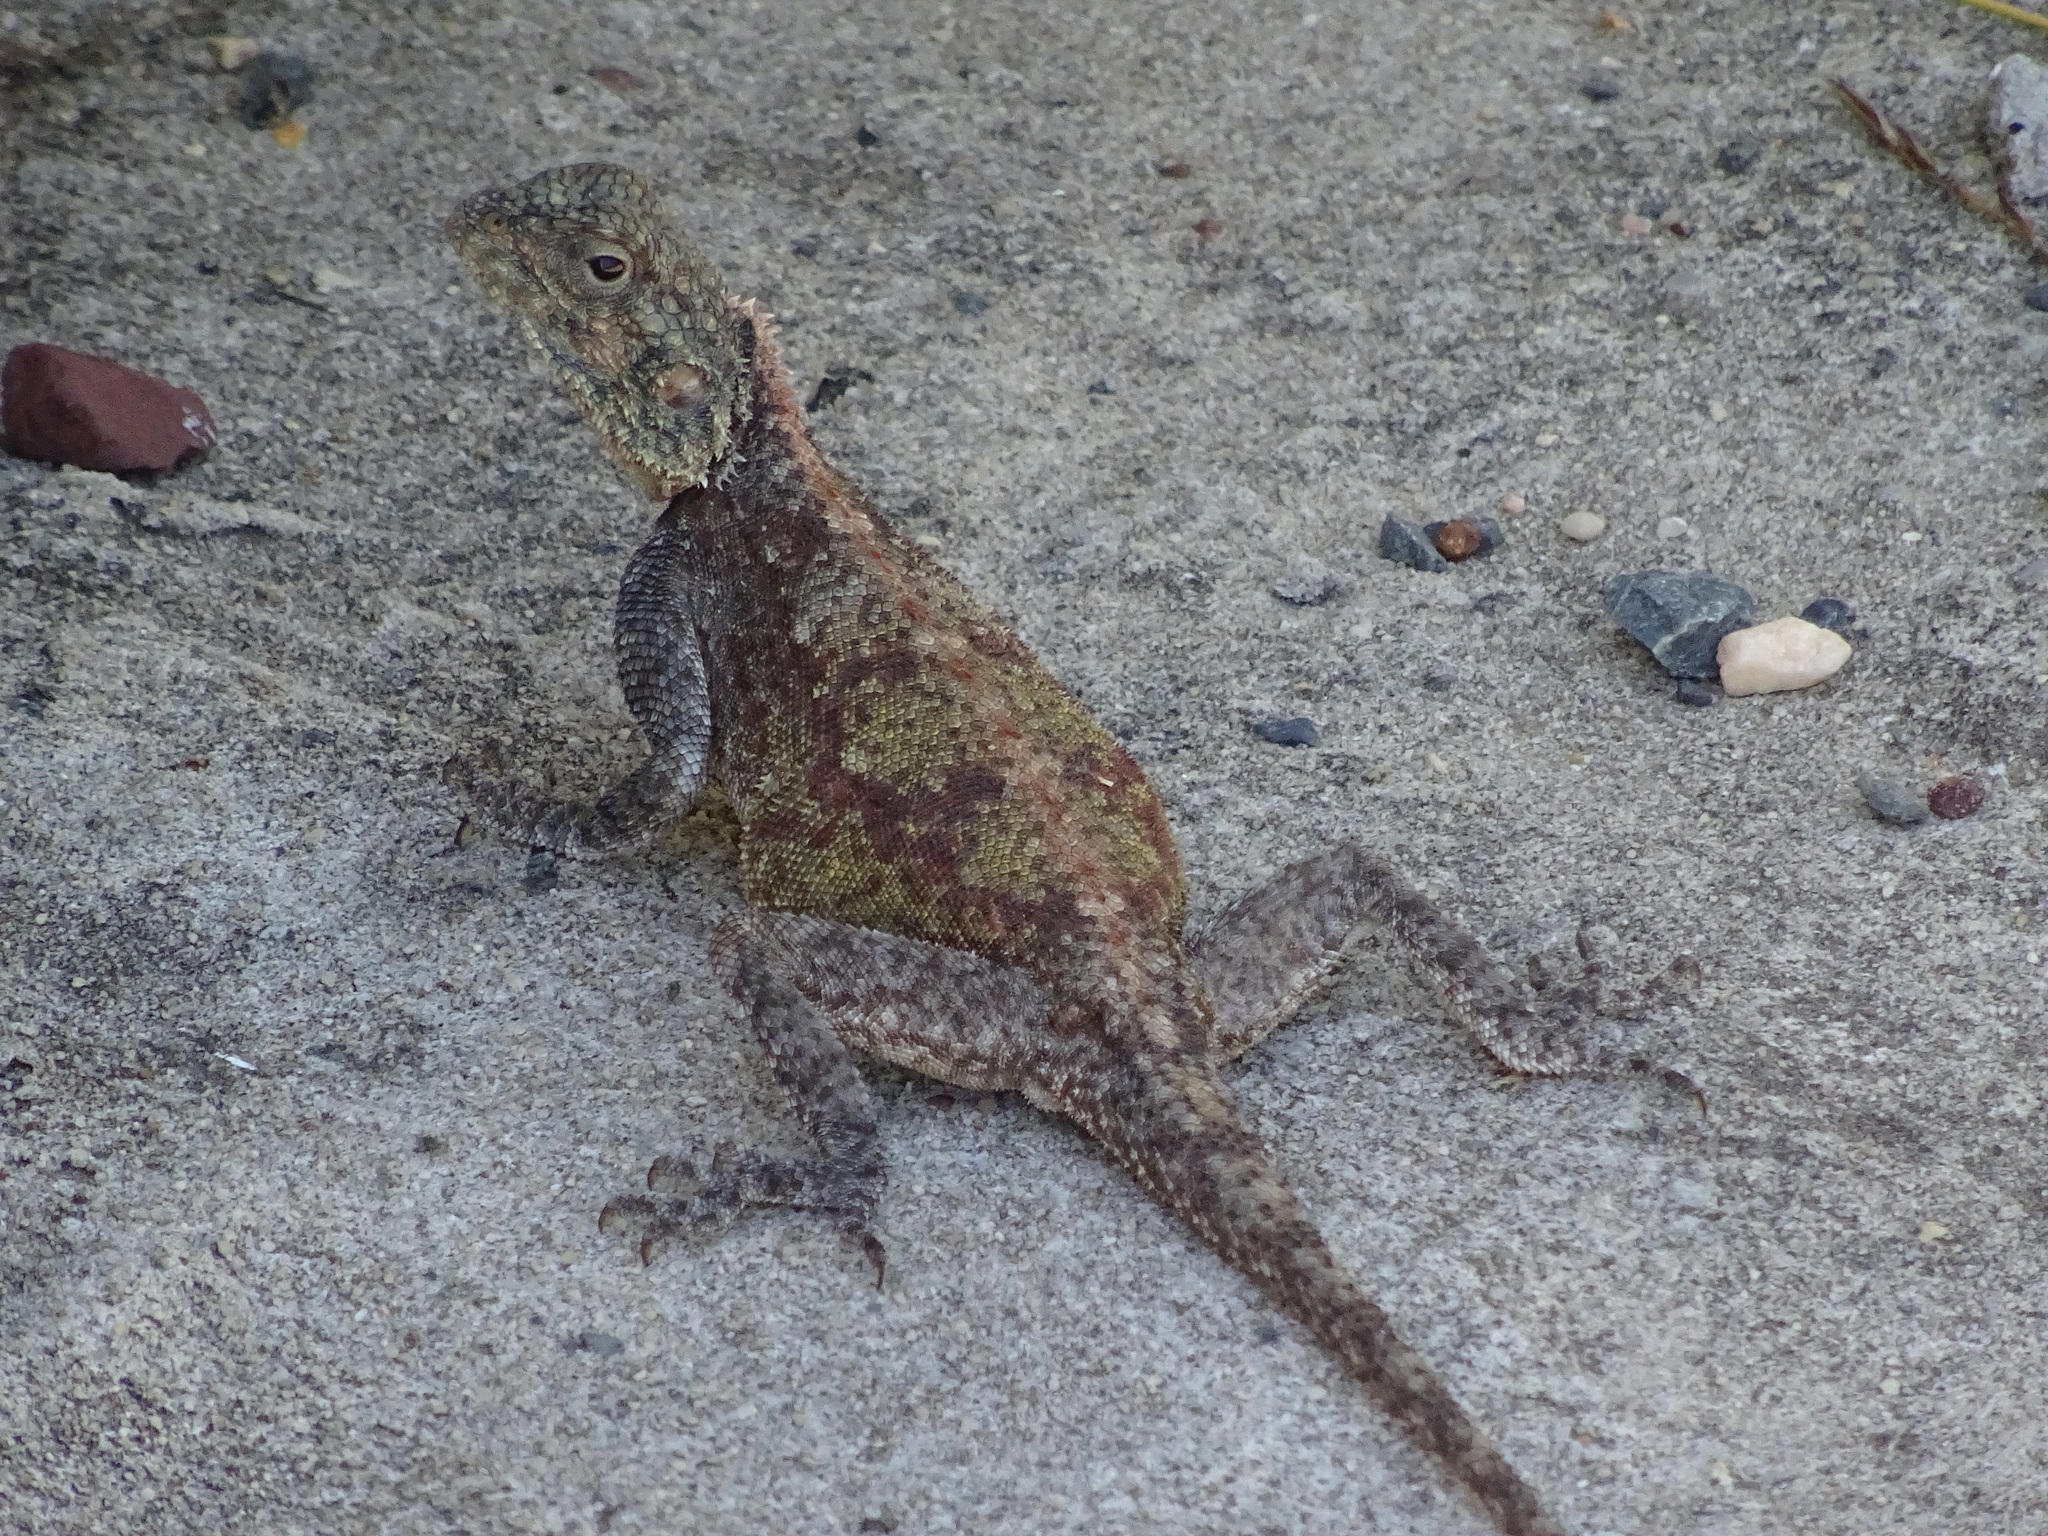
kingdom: Animalia
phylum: Chordata
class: Squamata
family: Agamidae
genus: Agama
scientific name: Agama atra
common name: Southern african rock agama
